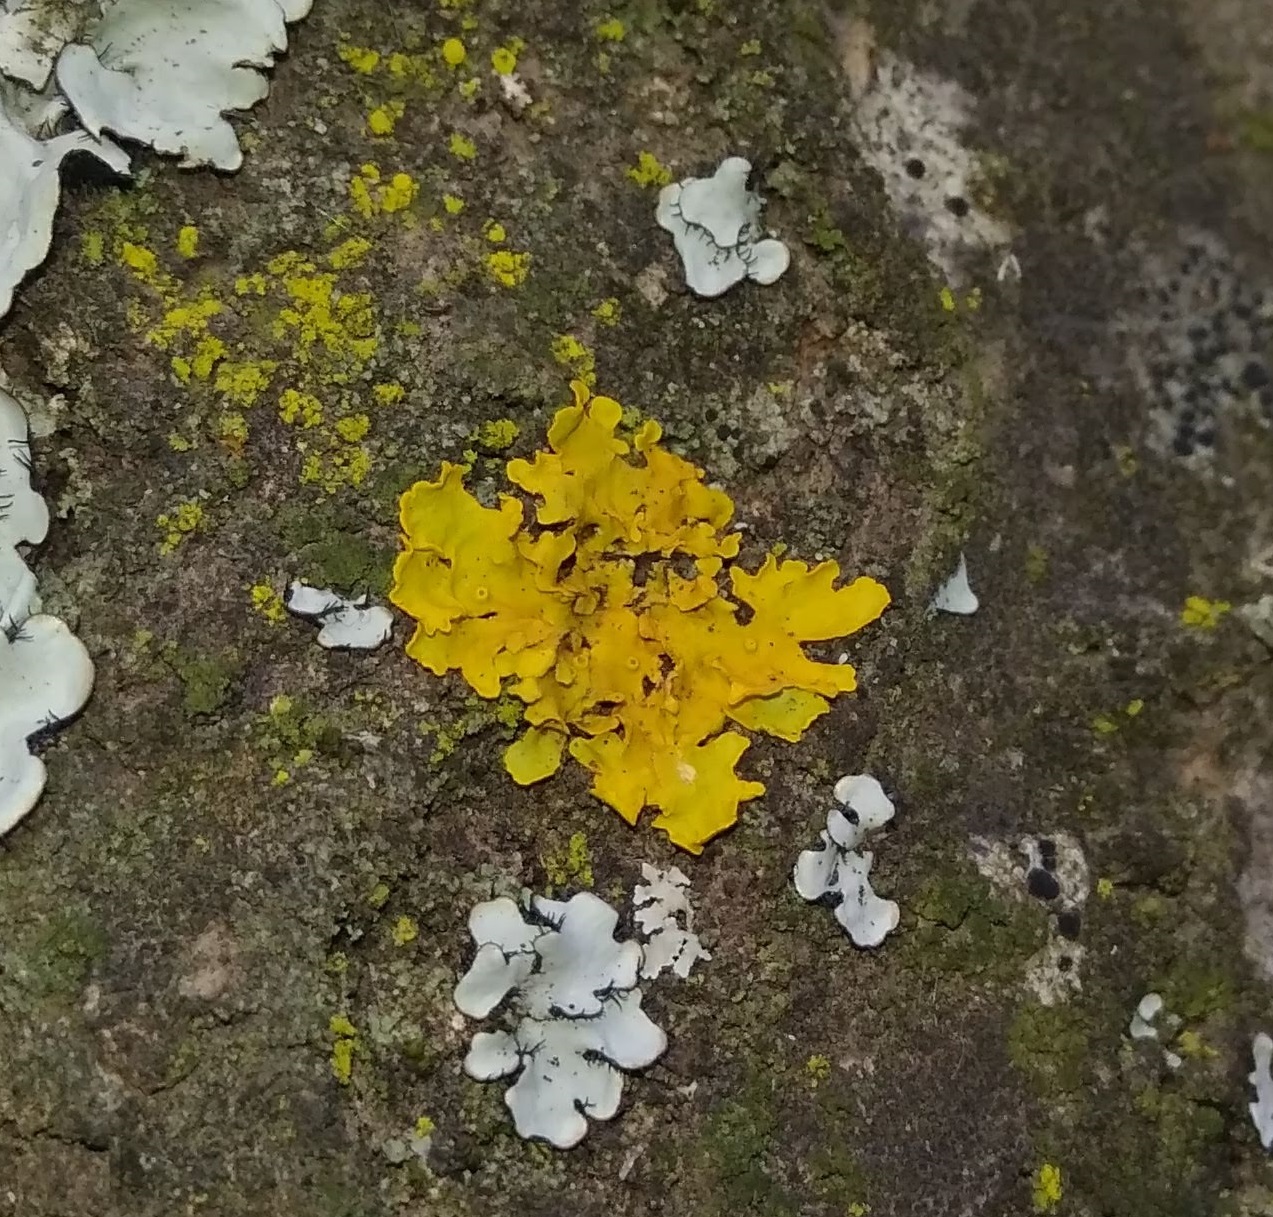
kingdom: Fungi
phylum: Ascomycota
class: Lecanoromycetes
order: Teloschistales
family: Teloschistaceae
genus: Xanthoria
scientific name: Xanthoria parietina
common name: Common orange lichen
